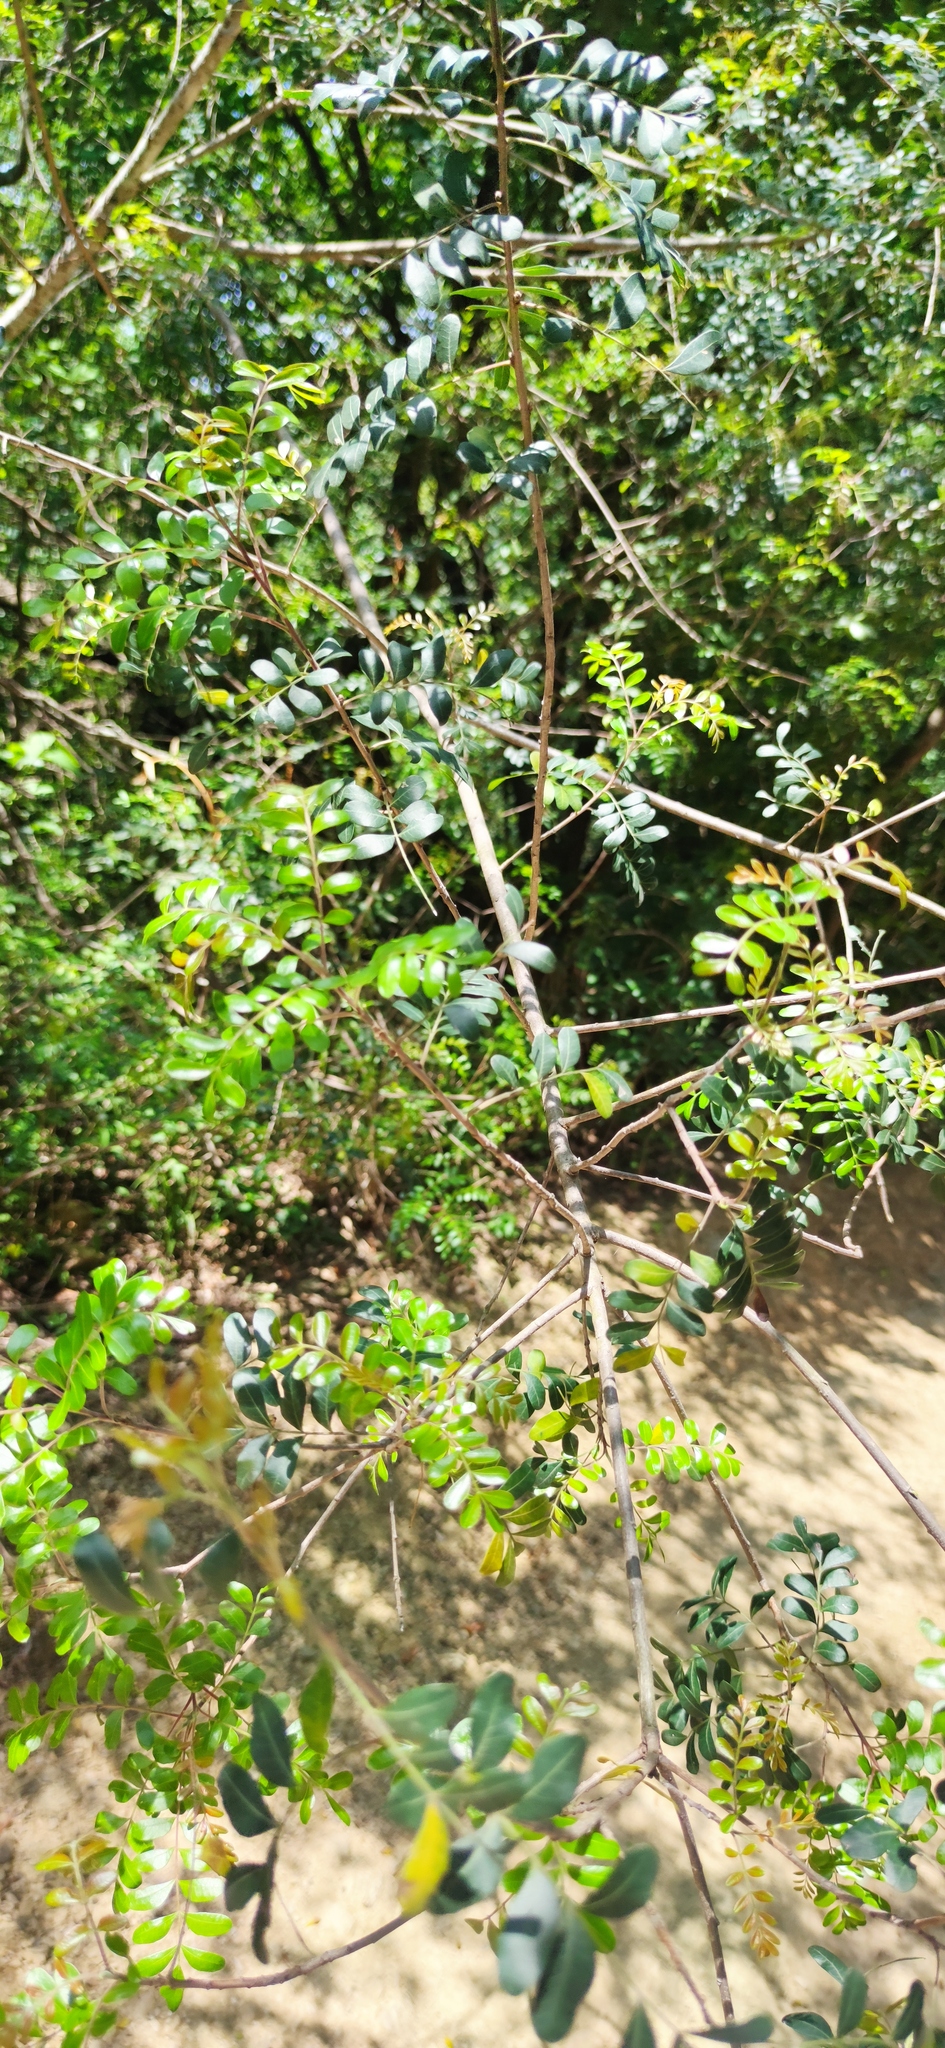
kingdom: Plantae
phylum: Tracheophyta
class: Magnoliopsida
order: Sapindales
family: Anacardiaceae
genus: Pistacia
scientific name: Pistacia mexicana
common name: Mexican pistachio
